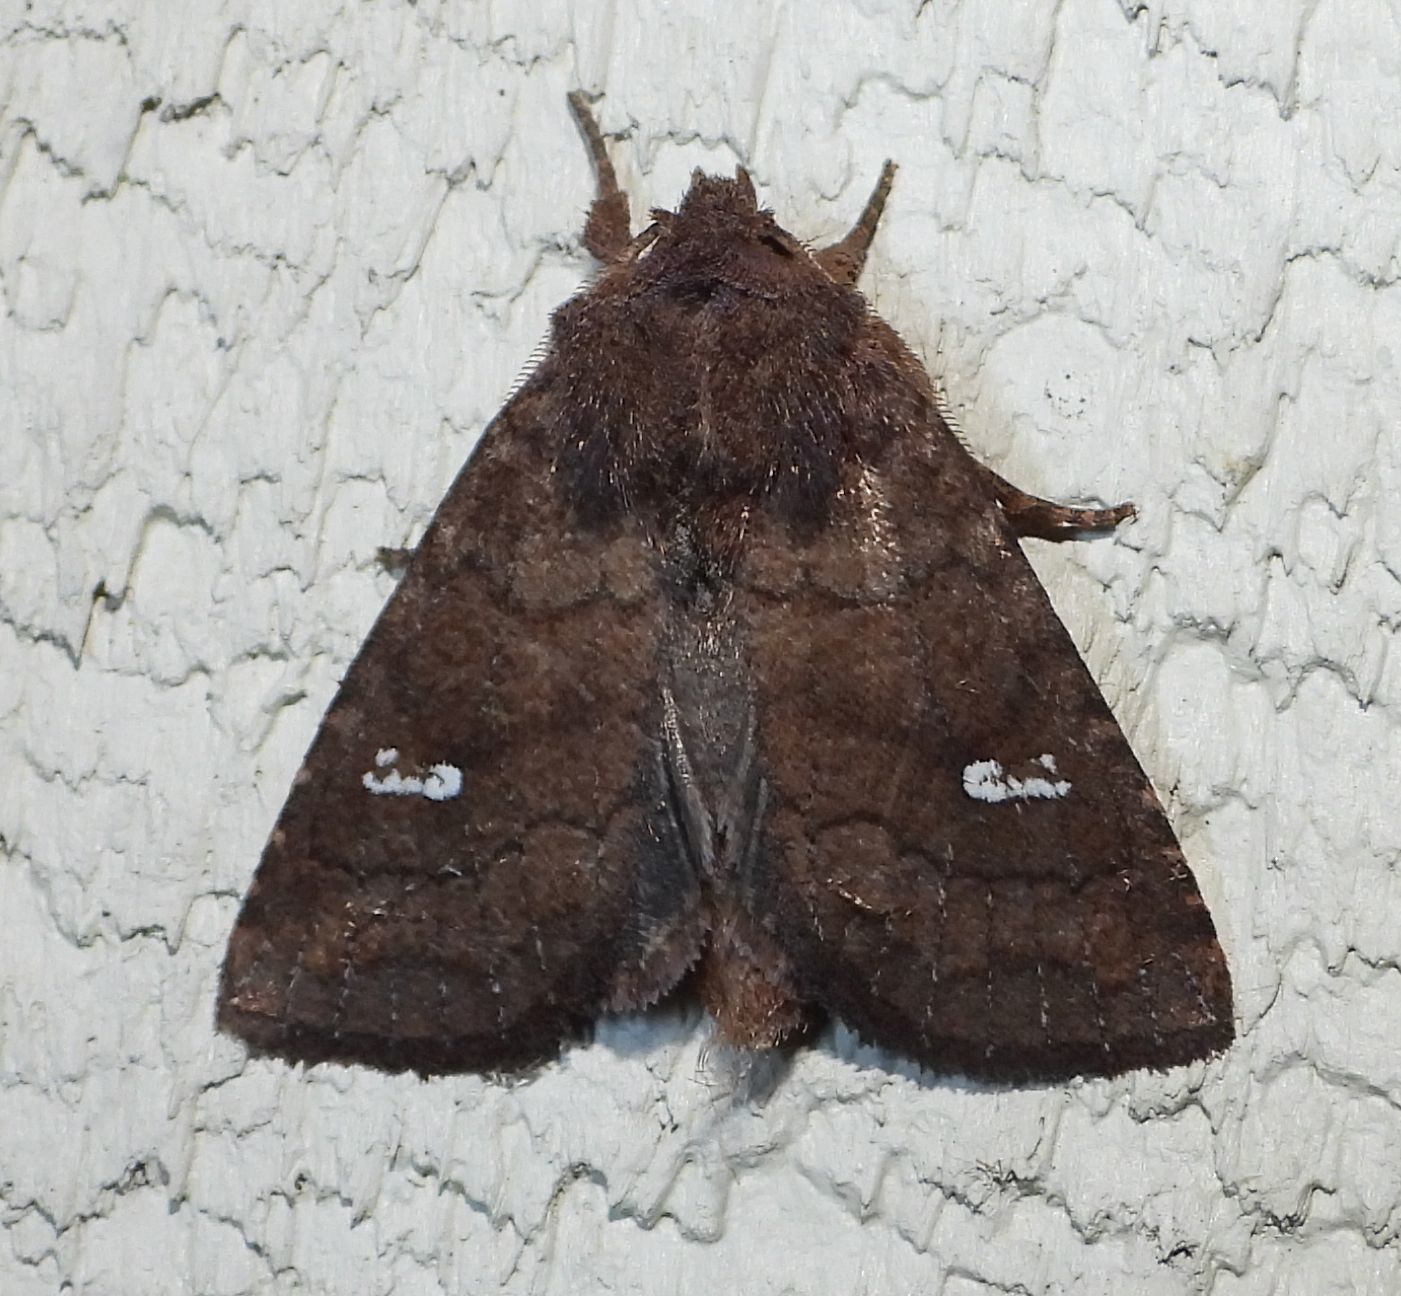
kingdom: Animalia
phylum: Arthropoda
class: Insecta
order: Lepidoptera
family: Noctuidae
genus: Tricholita
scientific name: Tricholita signata
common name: Signate quaker
